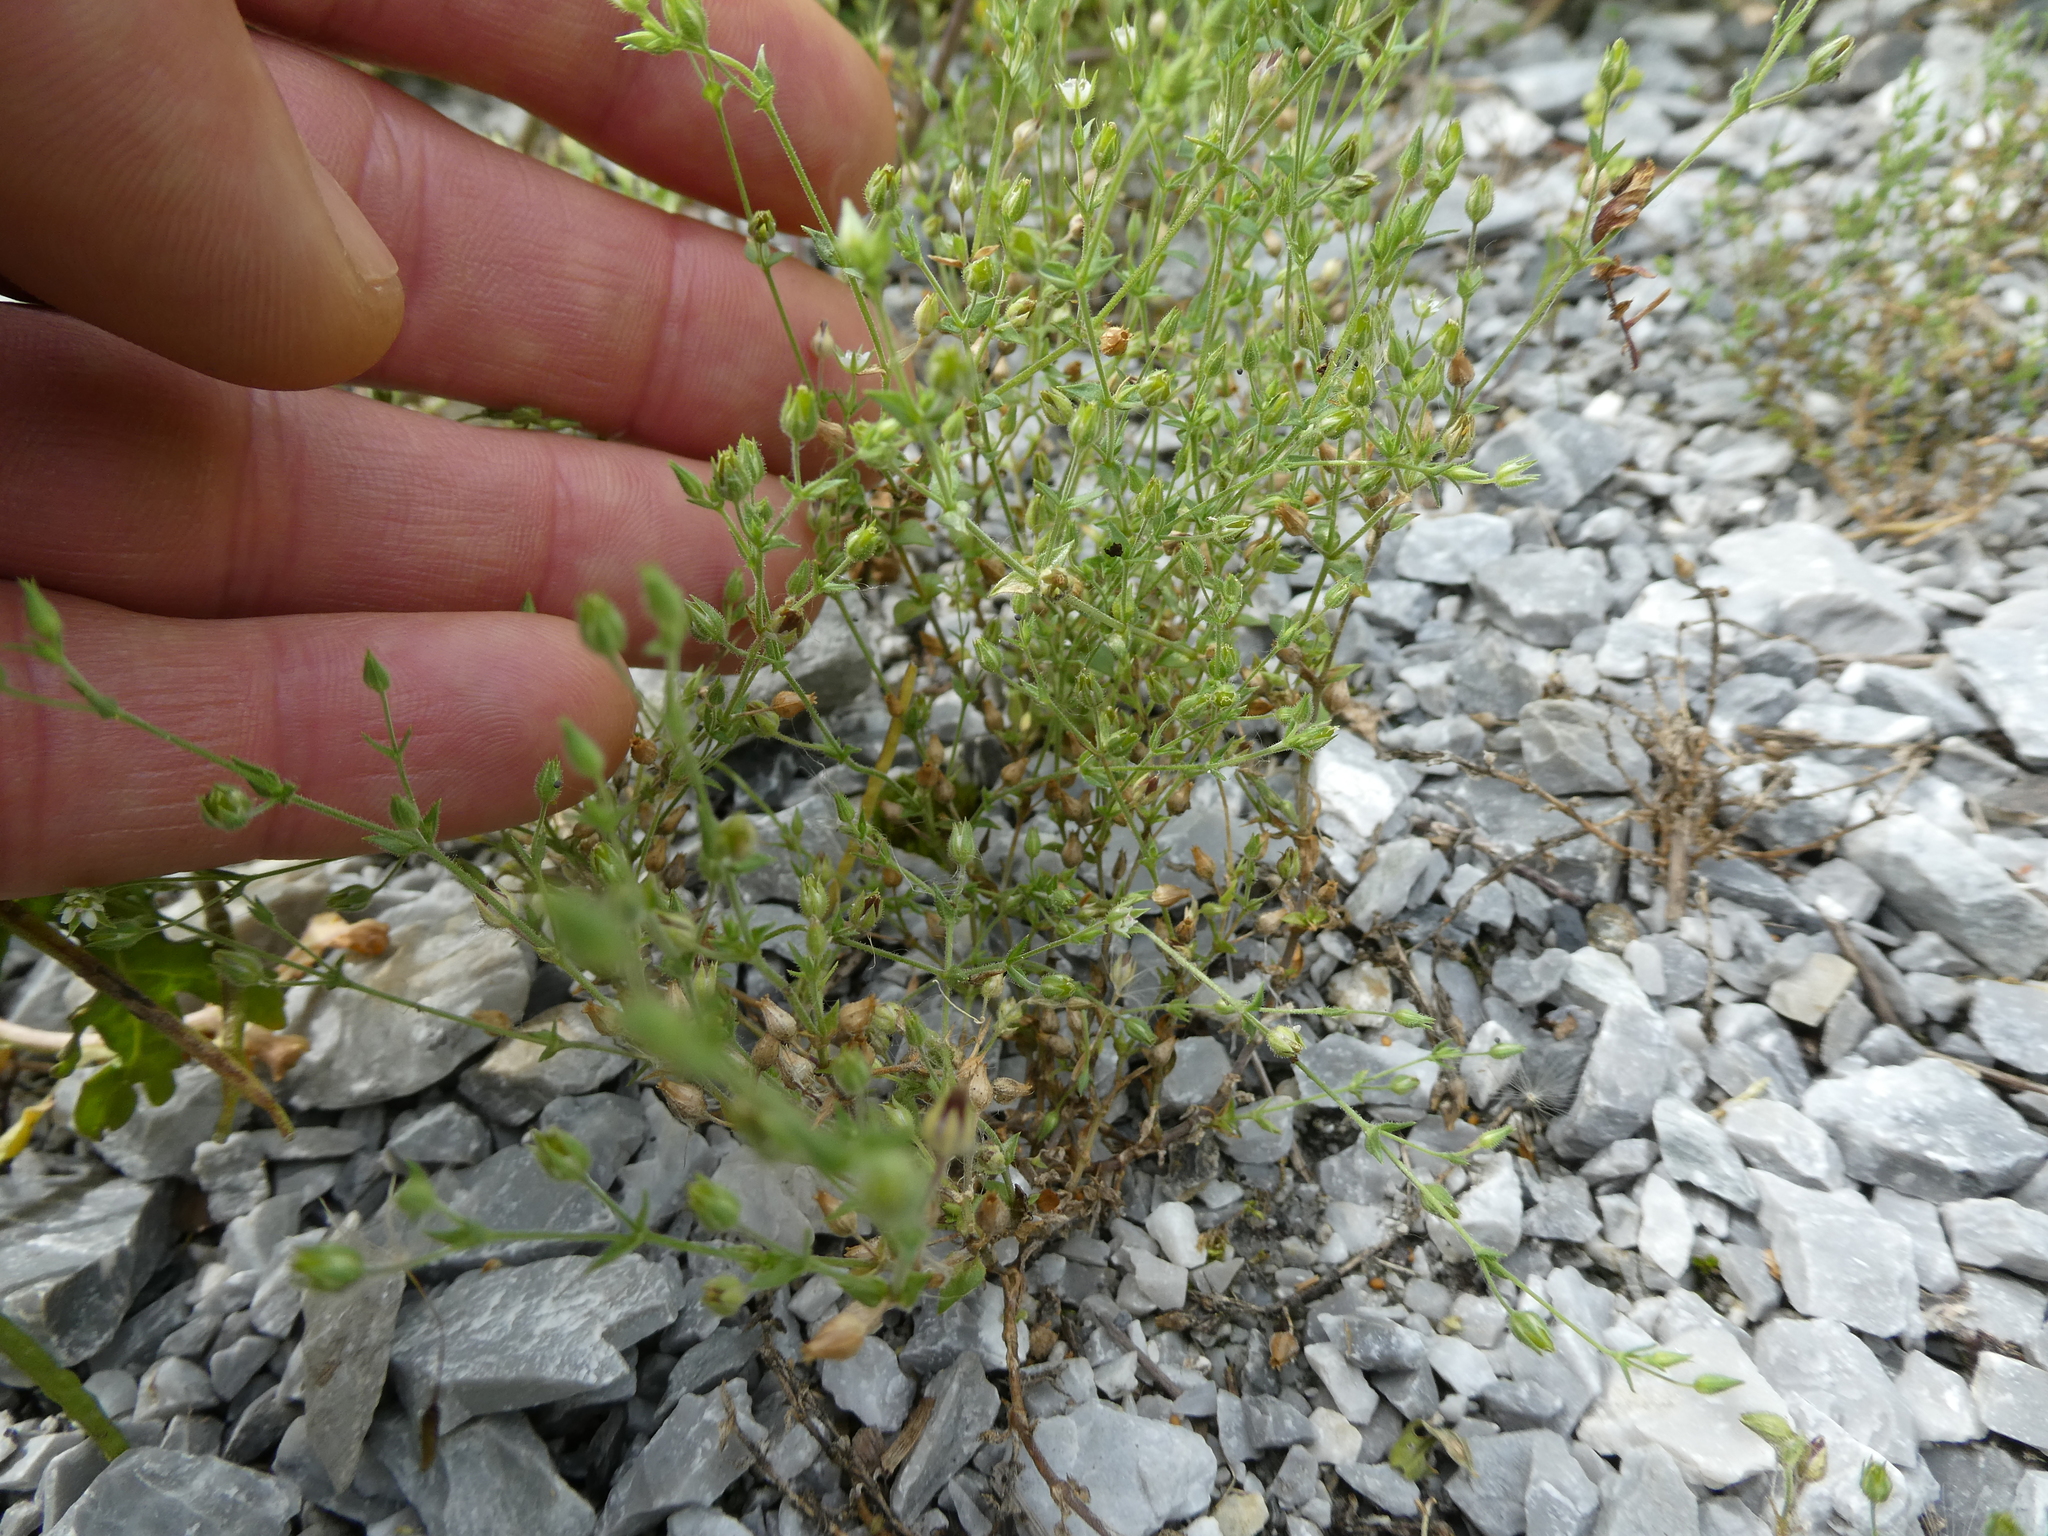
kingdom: Plantae
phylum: Tracheophyta
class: Magnoliopsida
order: Caryophyllales
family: Caryophyllaceae
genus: Arenaria
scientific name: Arenaria serpyllifolia
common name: Thyme-leaved sandwort
